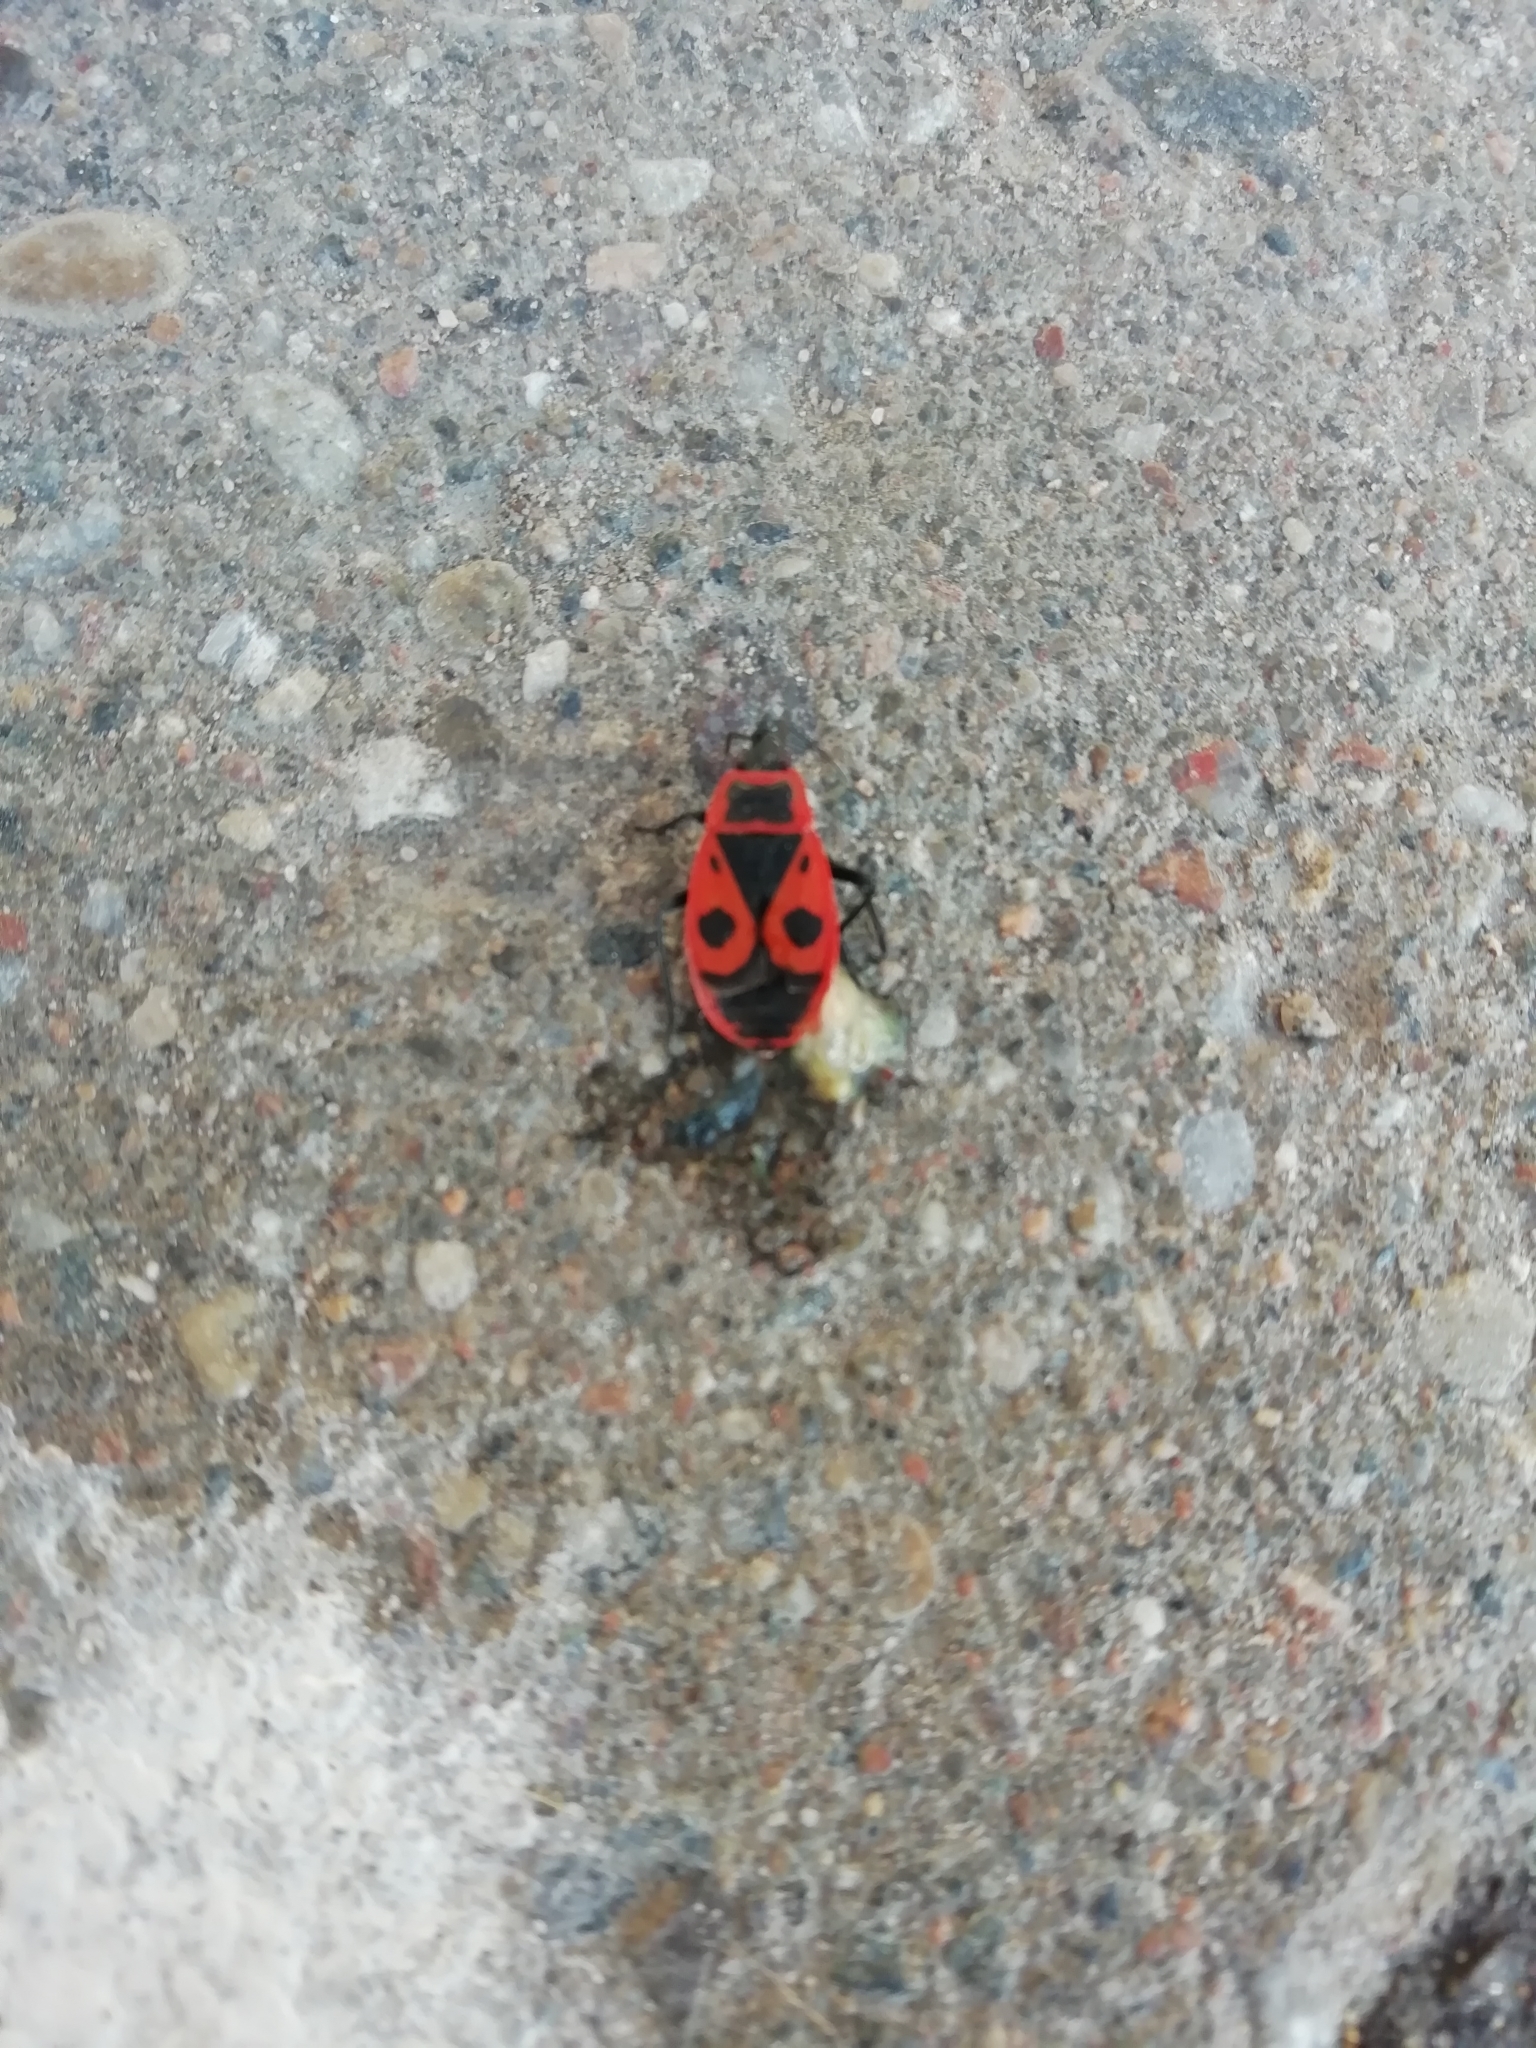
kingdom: Animalia
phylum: Arthropoda
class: Insecta
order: Hemiptera
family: Pyrrhocoridae
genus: Pyrrhocoris
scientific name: Pyrrhocoris apterus
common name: Firebug
